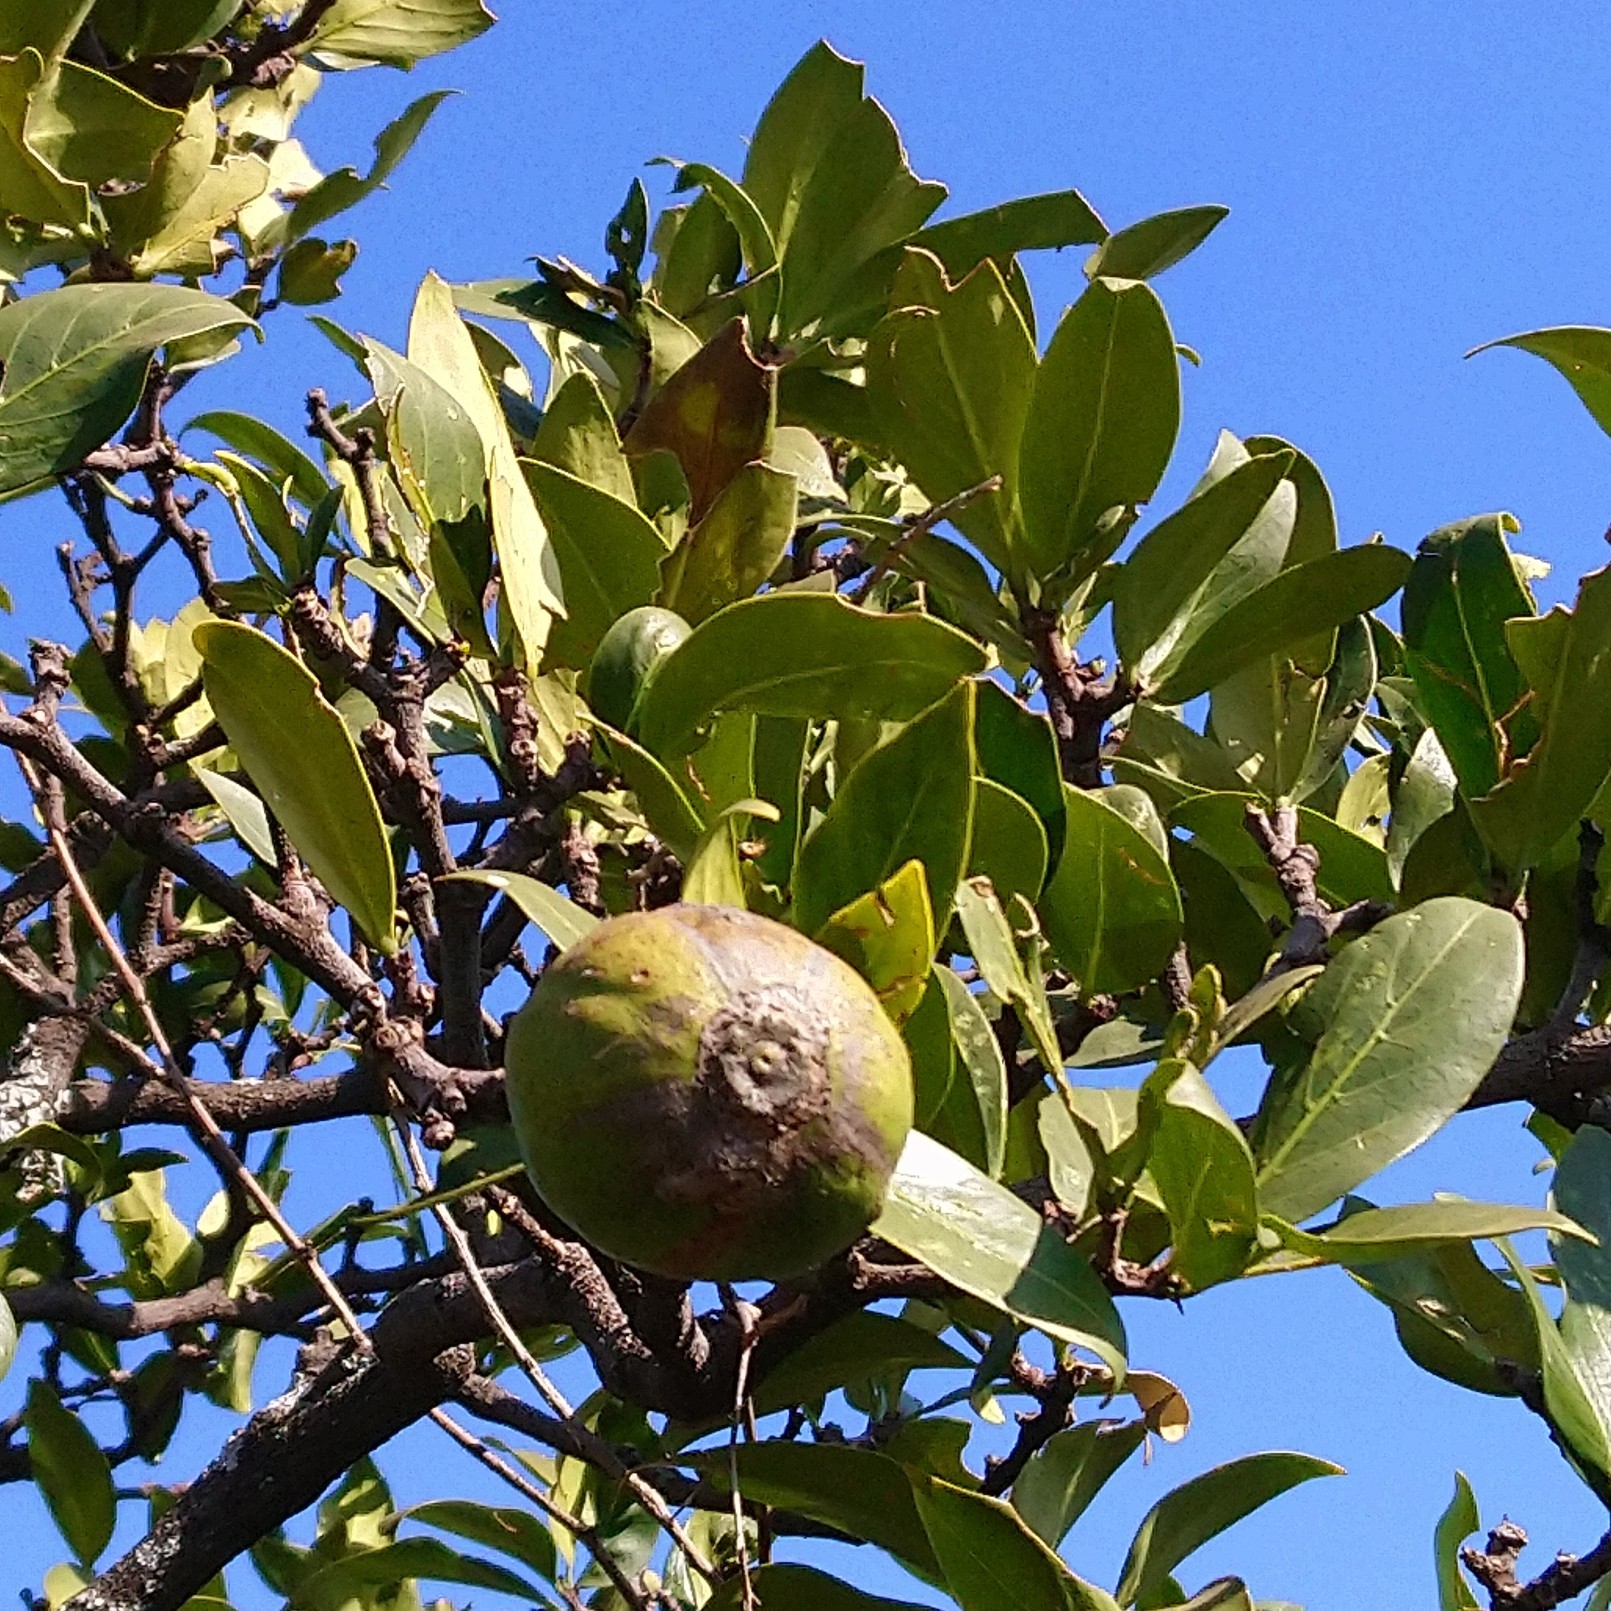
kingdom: Plantae
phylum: Tracheophyta
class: Magnoliopsida
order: Gentianales
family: Rubiaceae
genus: Rothmannia
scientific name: Rothmannia capensis
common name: Cape gardenia
